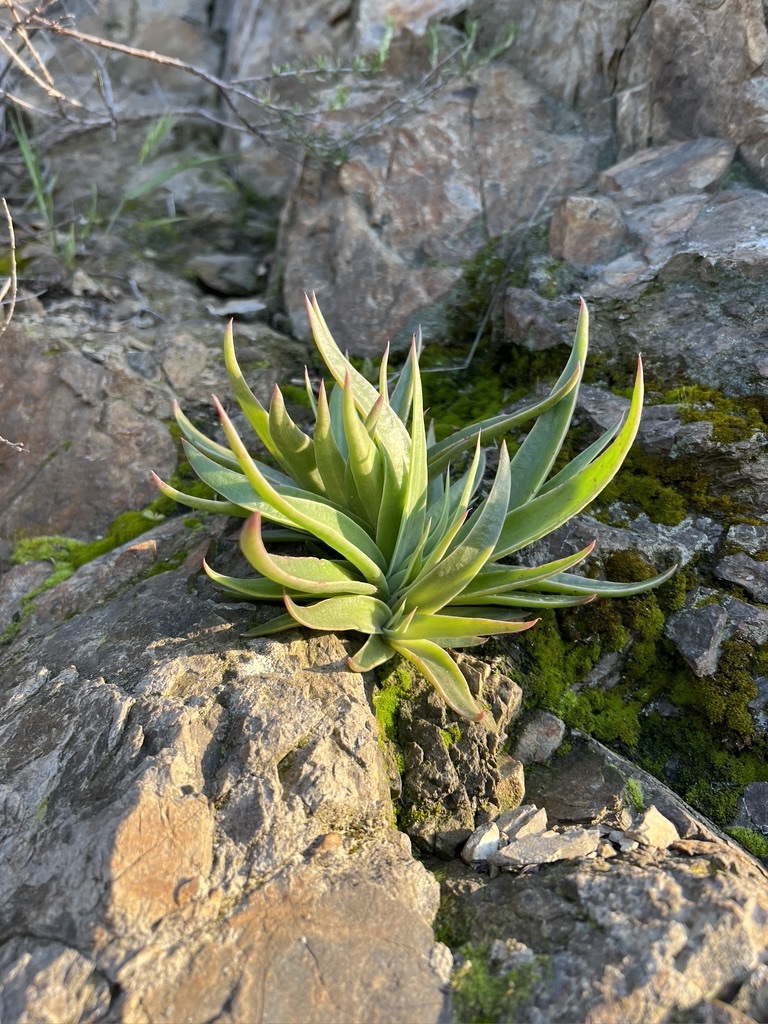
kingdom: Plantae
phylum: Tracheophyta
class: Magnoliopsida
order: Saxifragales
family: Crassulaceae
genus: Dudleya
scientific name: Dudleya lanceolata
